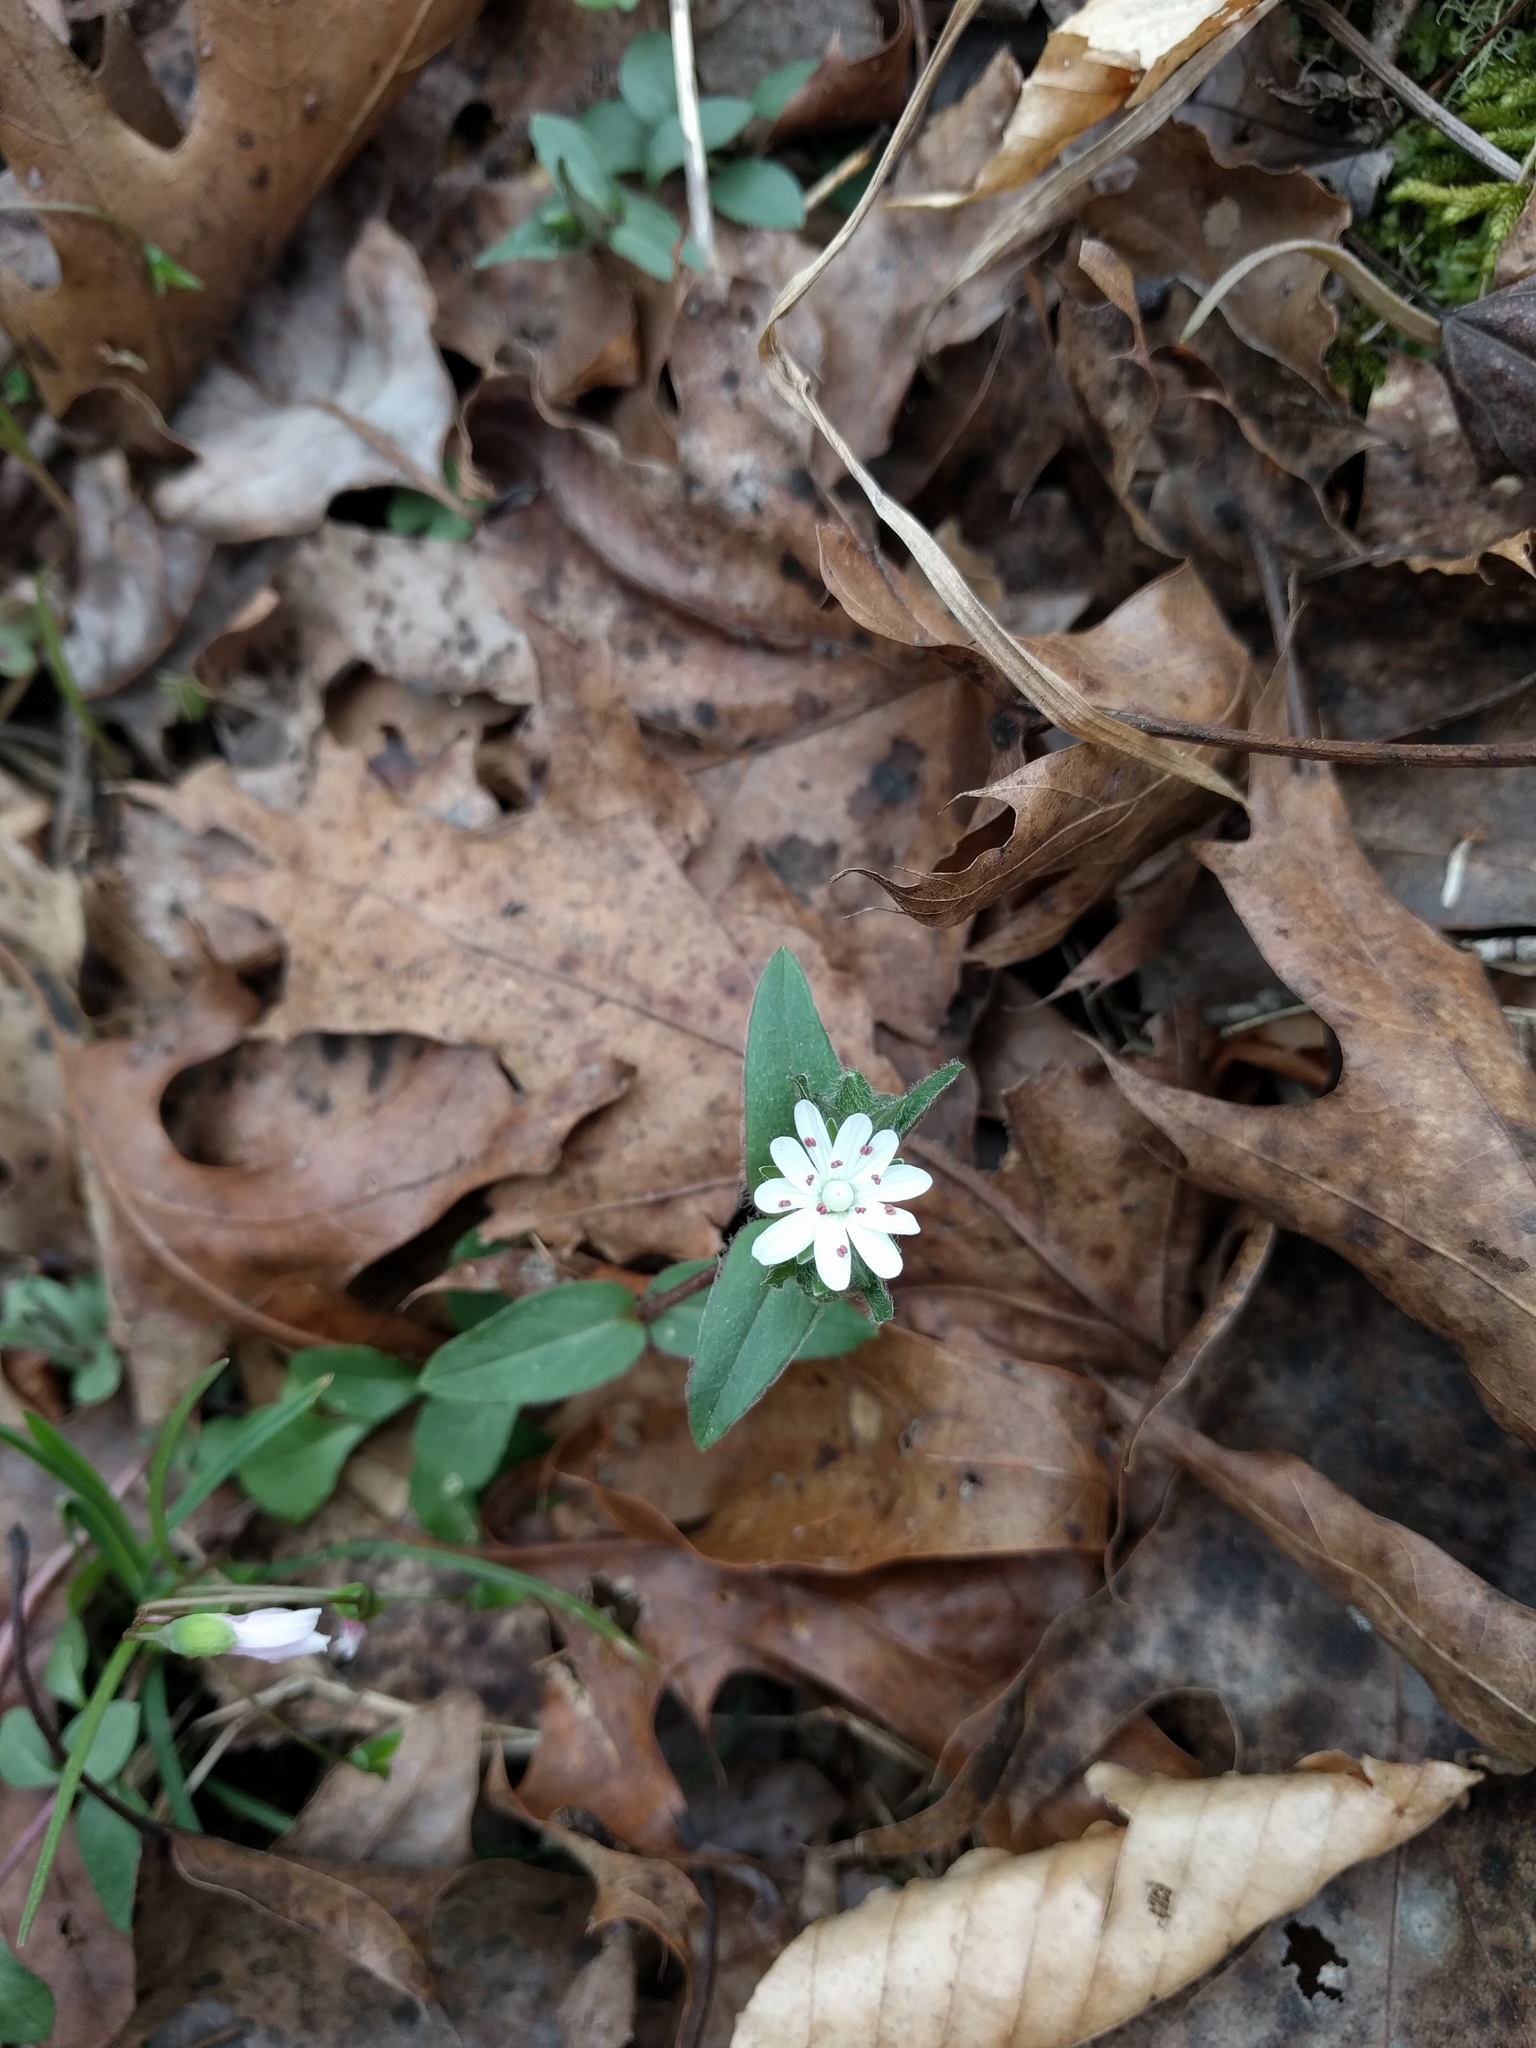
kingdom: Plantae
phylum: Tracheophyta
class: Magnoliopsida
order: Caryophyllales
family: Caryophyllaceae
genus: Stellaria
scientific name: Stellaria pubera
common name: Star chickweed
